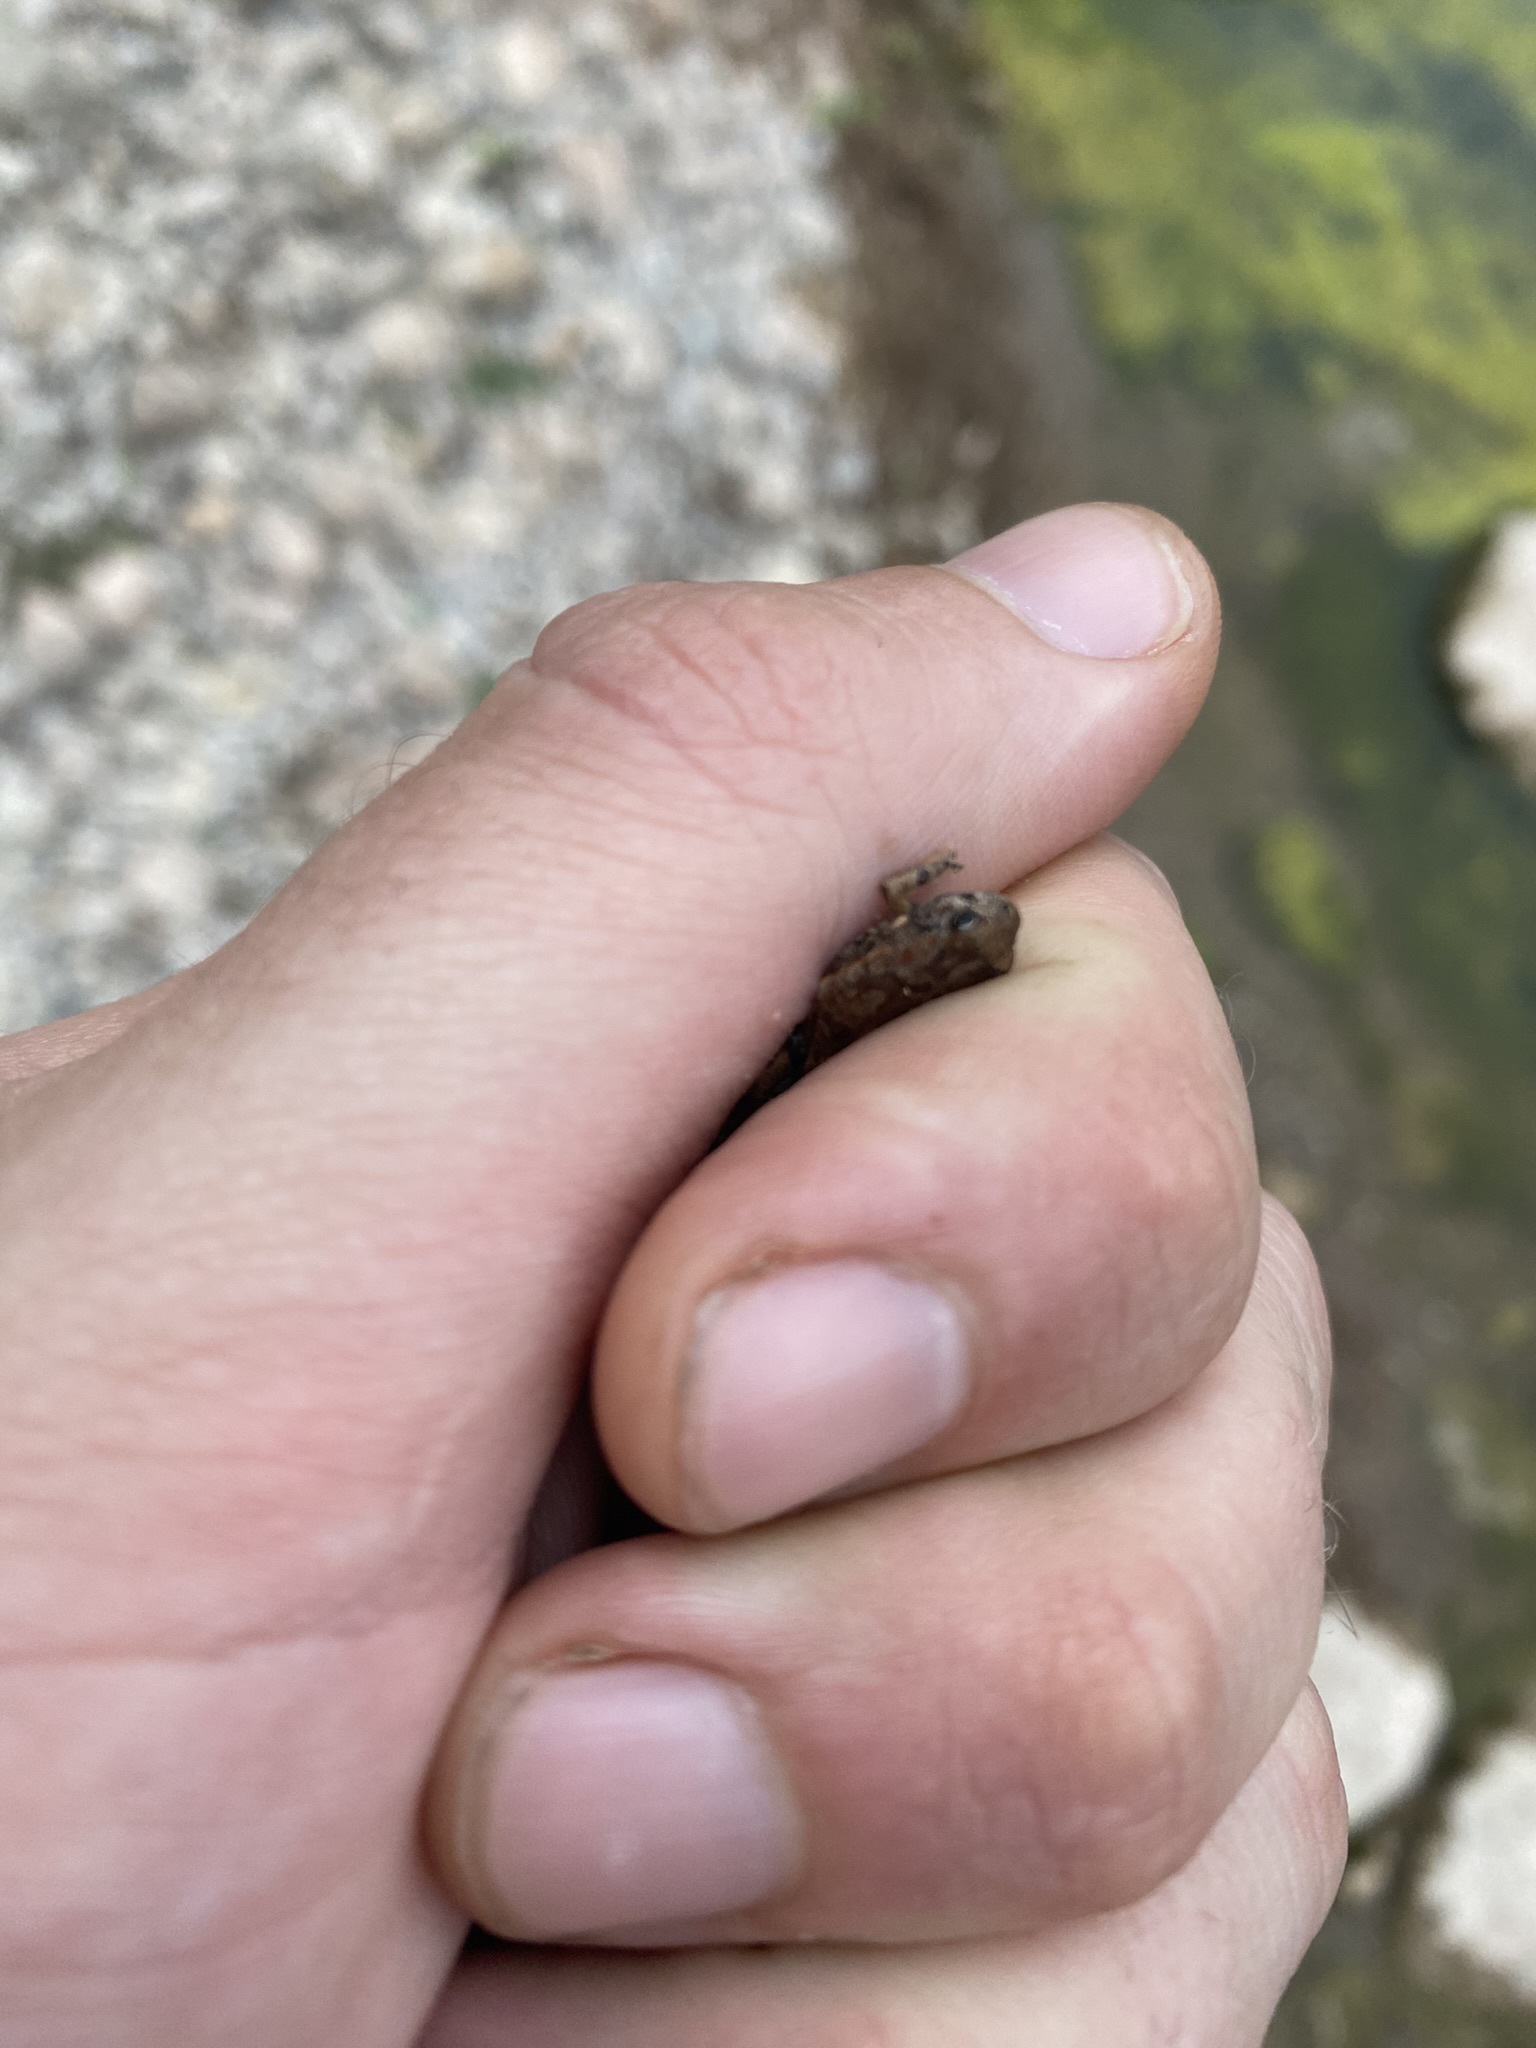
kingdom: Animalia
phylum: Chordata
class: Amphibia
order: Anura
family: Bufonidae
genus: Rhinella
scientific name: Rhinella arenarum
